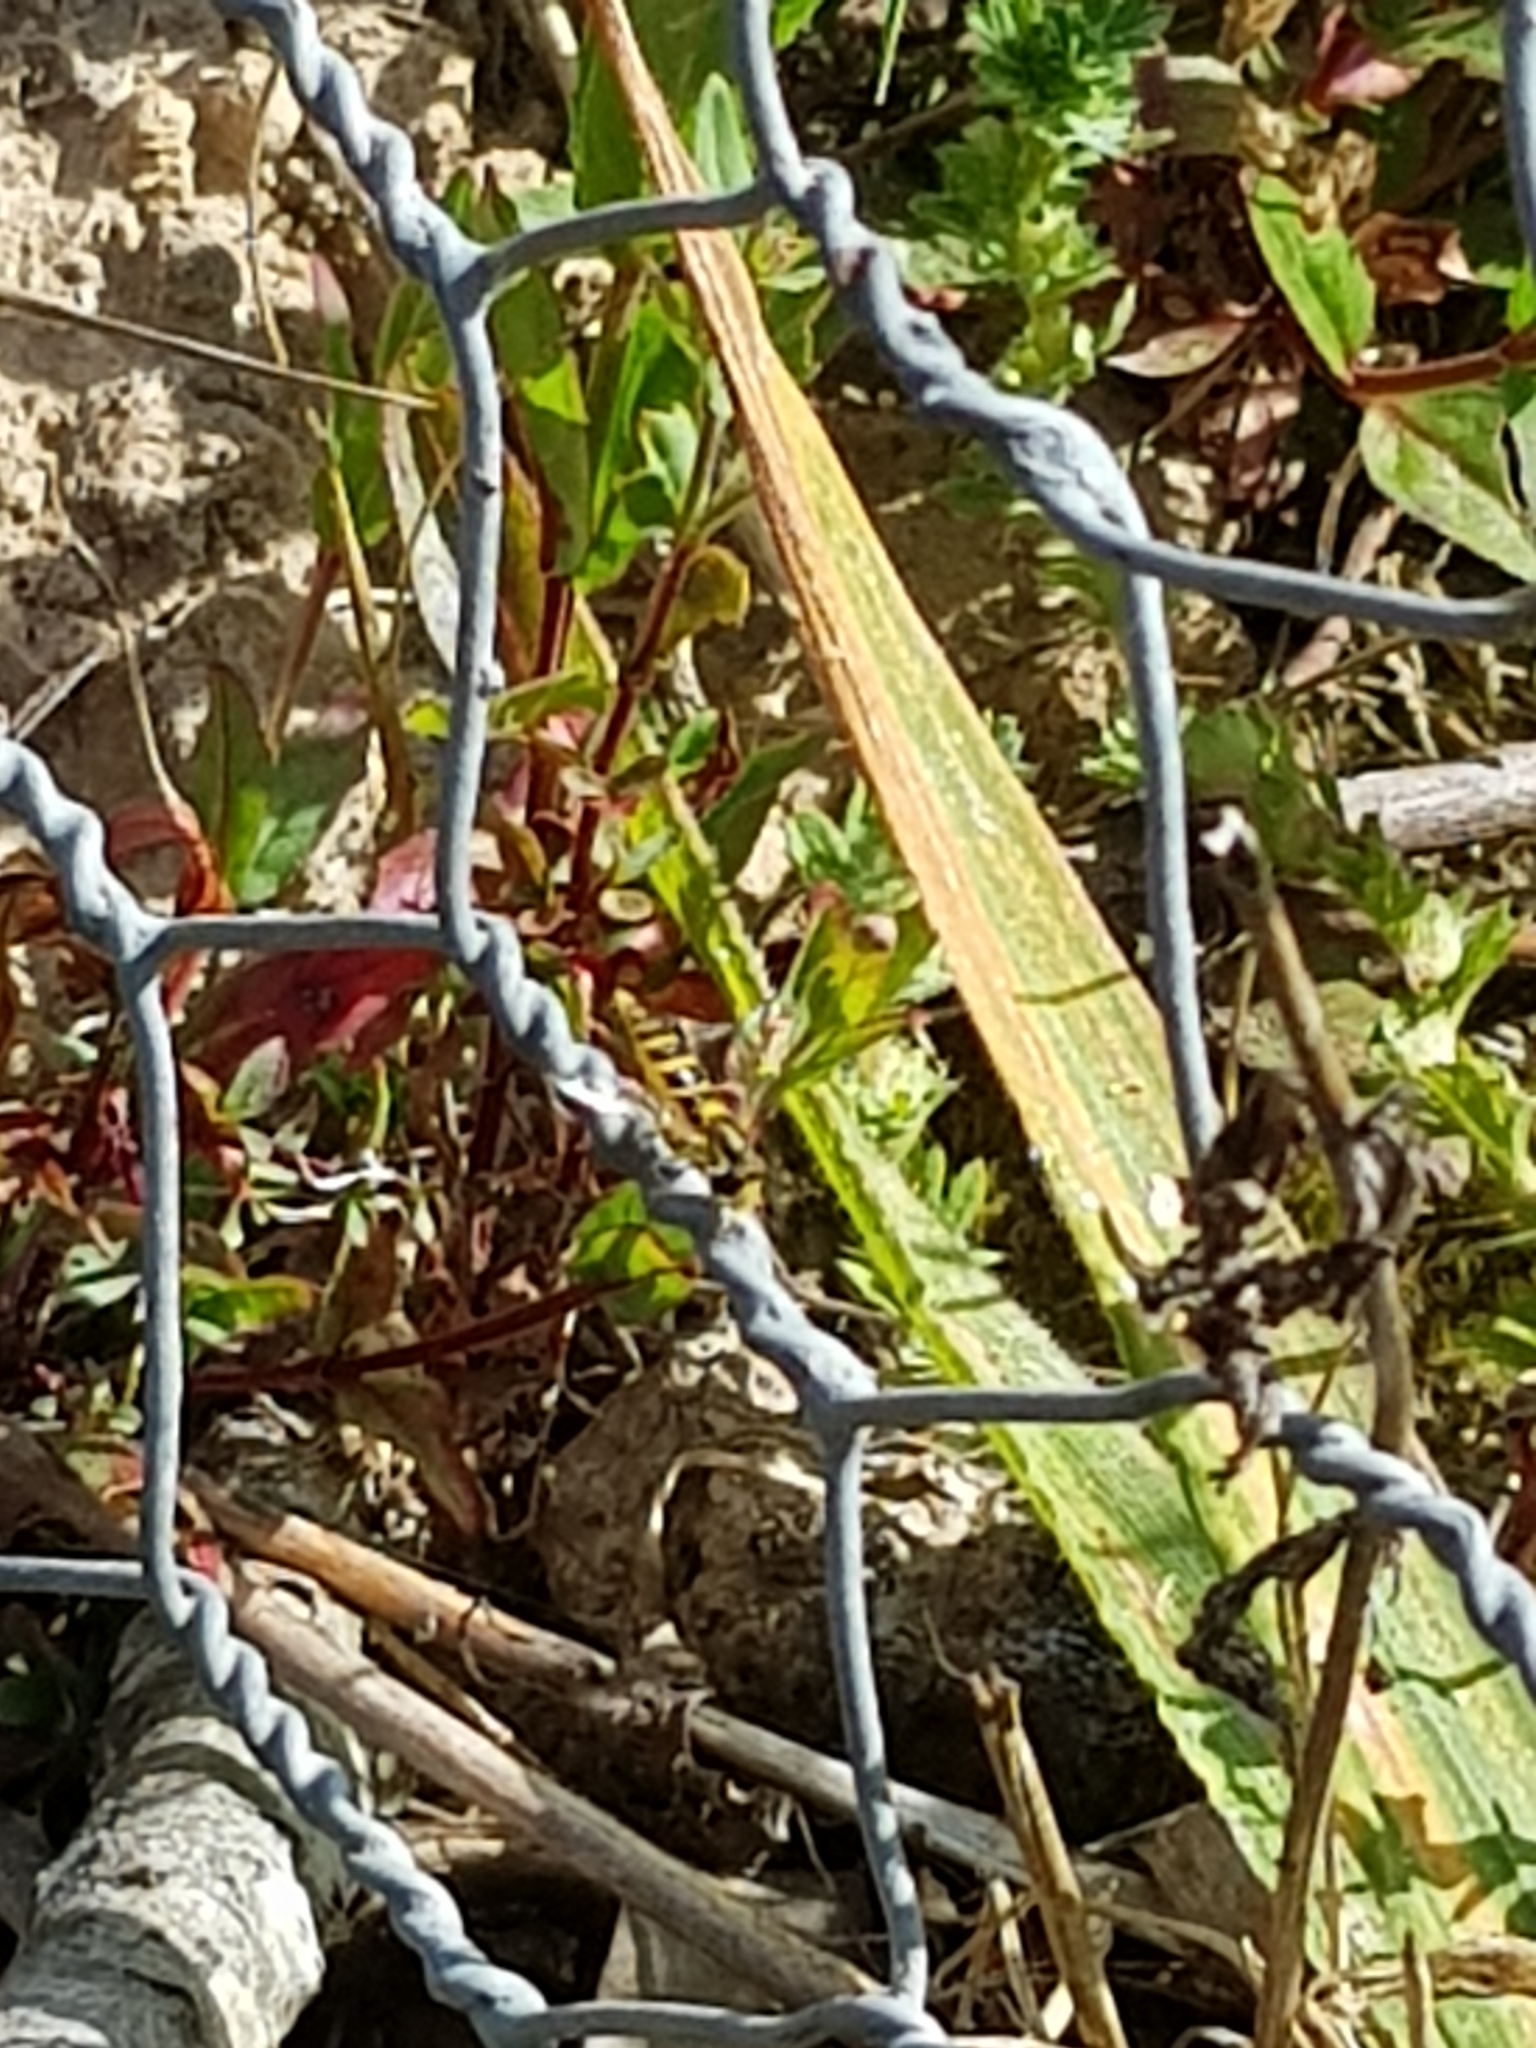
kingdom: Animalia
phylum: Arthropoda
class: Insecta
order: Diptera
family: Syrphidae
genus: Sphaerophoria
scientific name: Sphaerophoria
